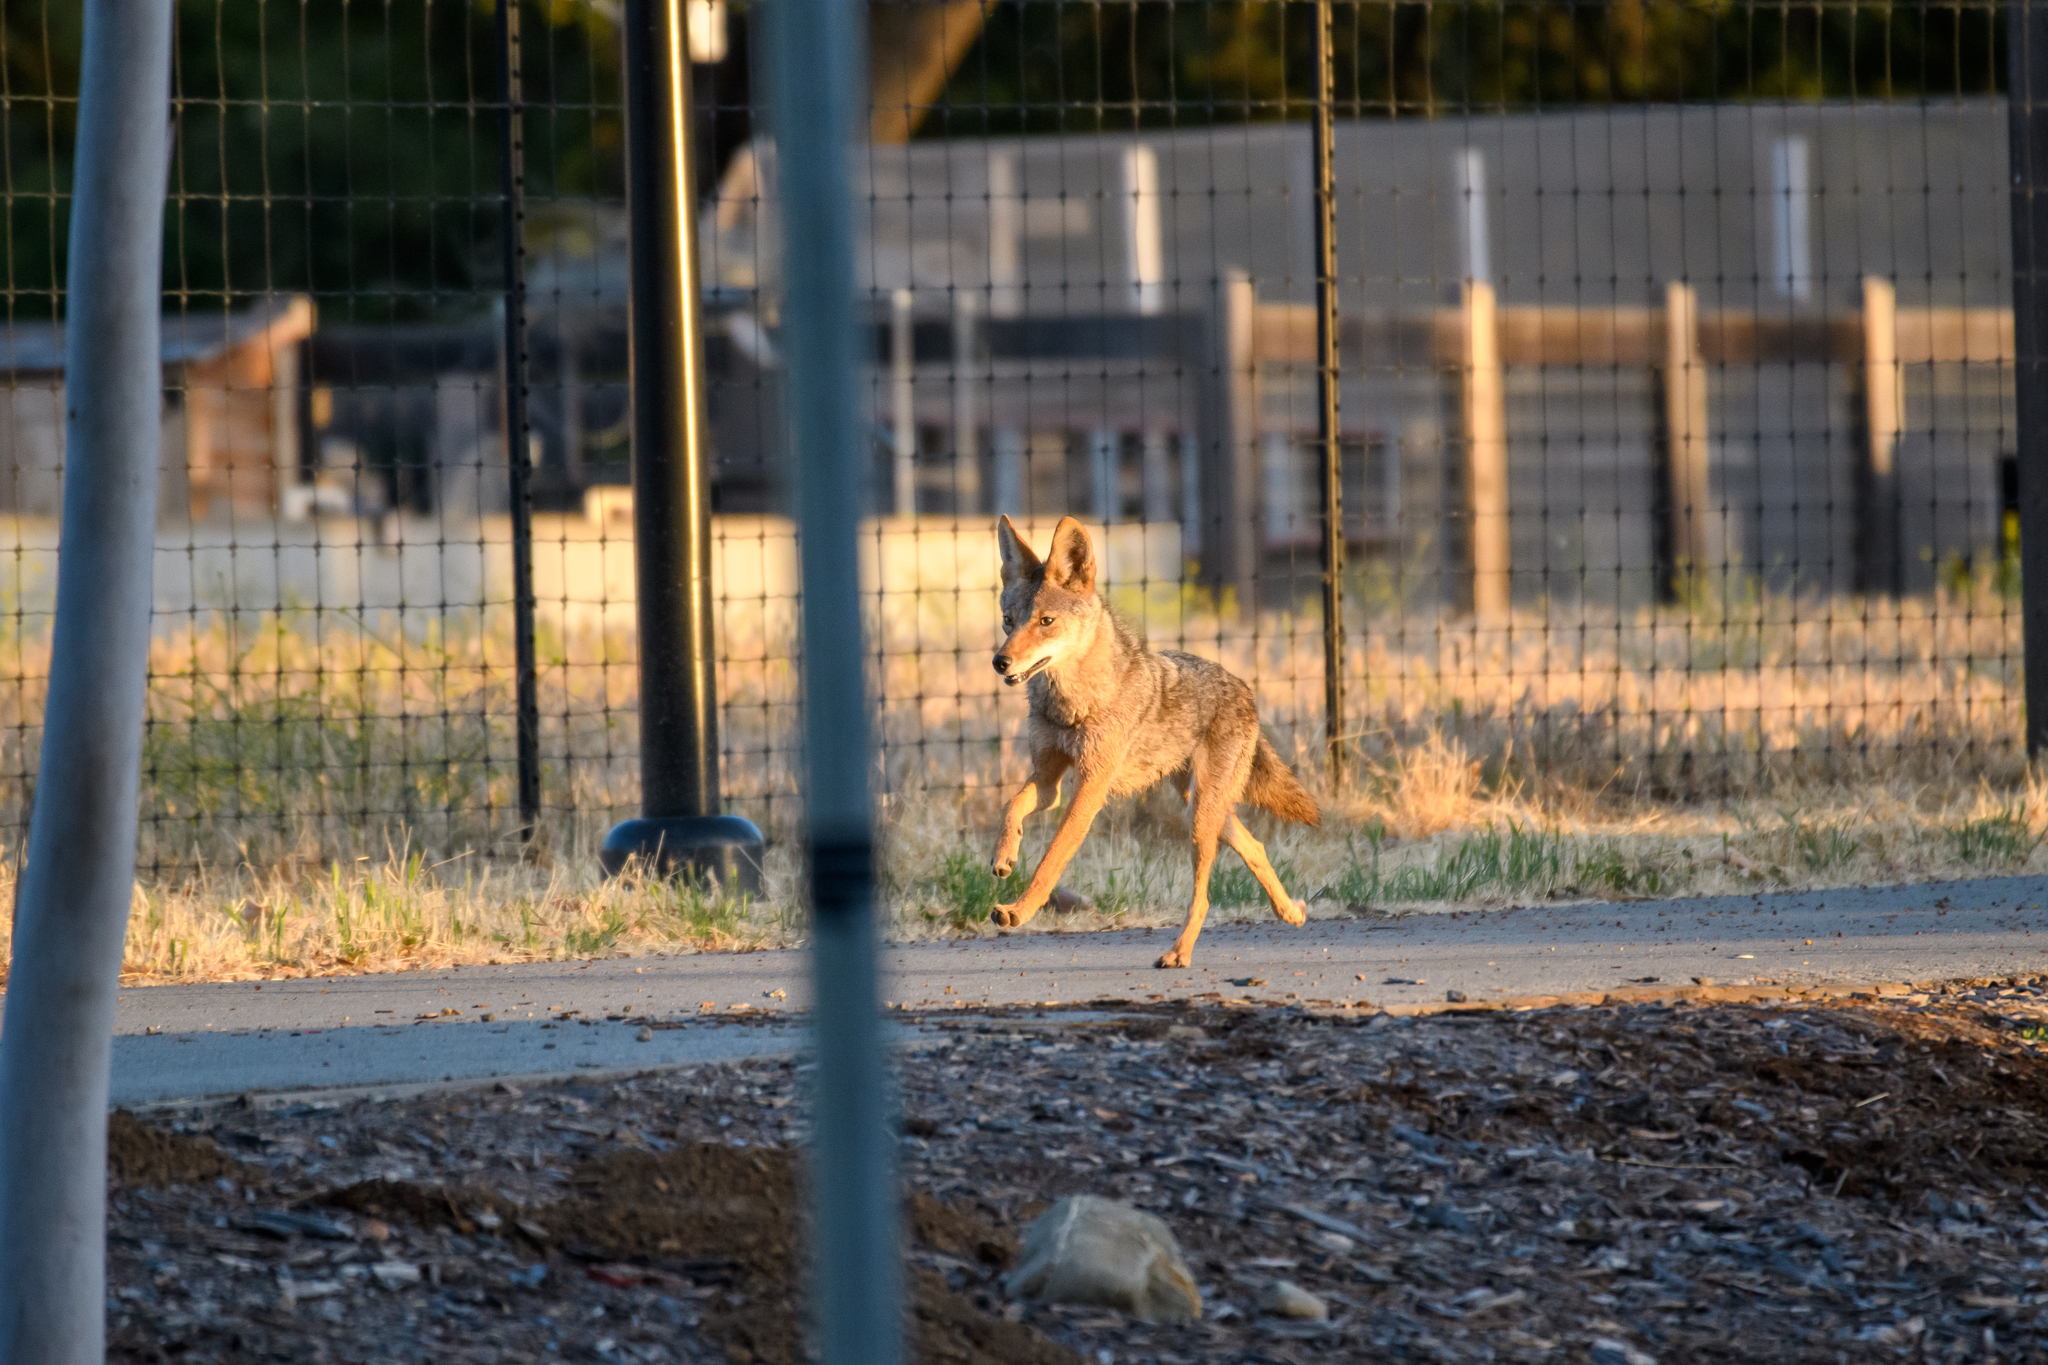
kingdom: Animalia
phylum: Chordata
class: Mammalia
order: Carnivora
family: Canidae
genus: Canis
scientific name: Canis latrans
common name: Coyote
